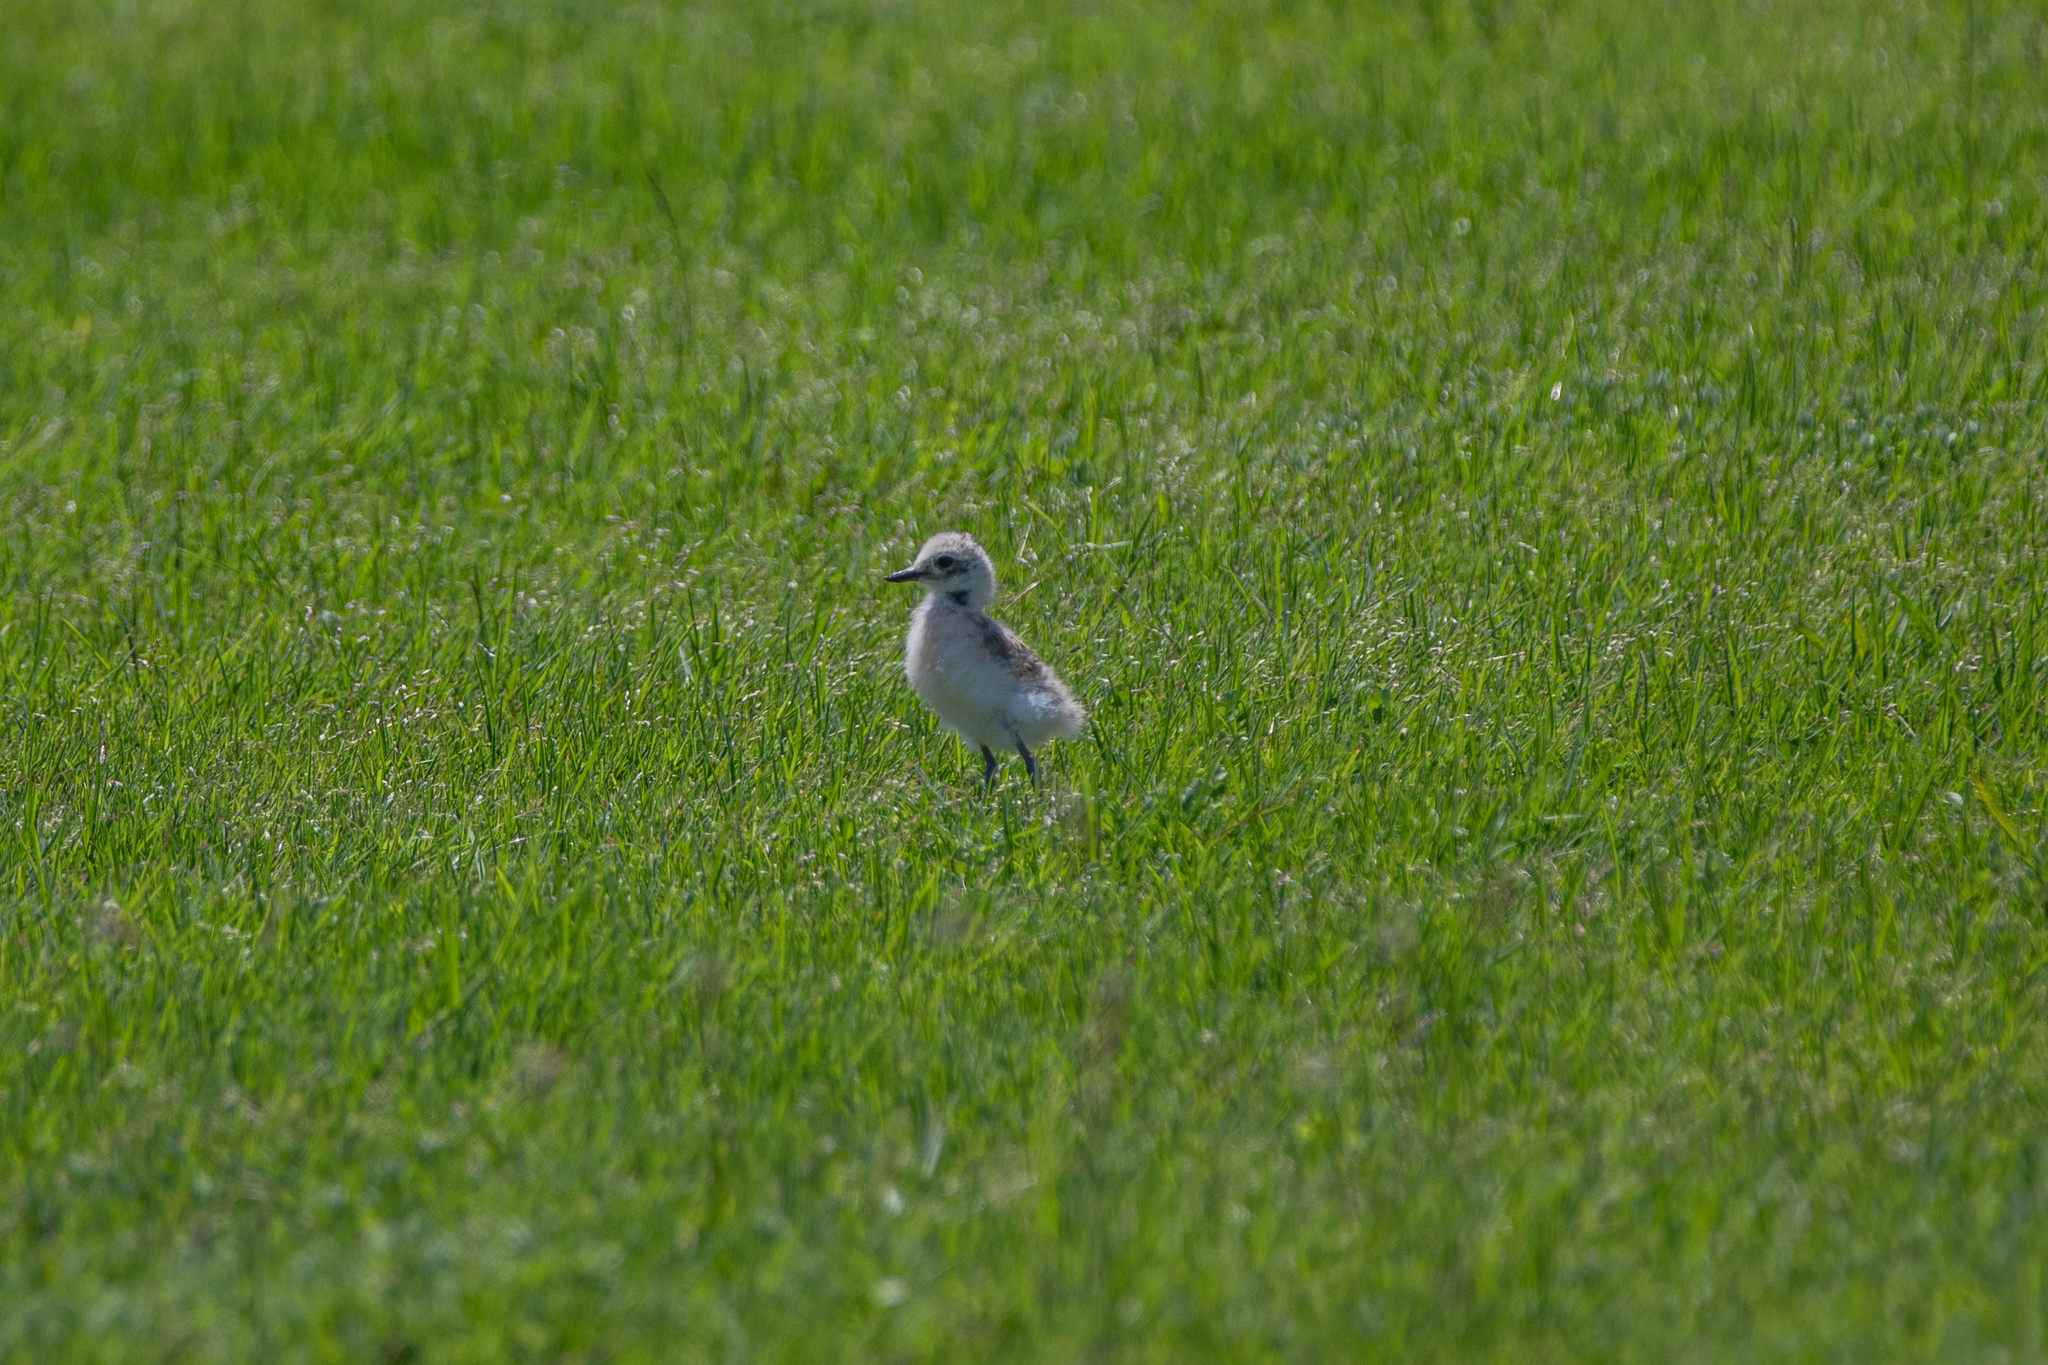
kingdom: Animalia
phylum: Chordata
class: Aves
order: Charadriiformes
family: Charadriidae
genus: Anarhynchus
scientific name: Anarhynchus
